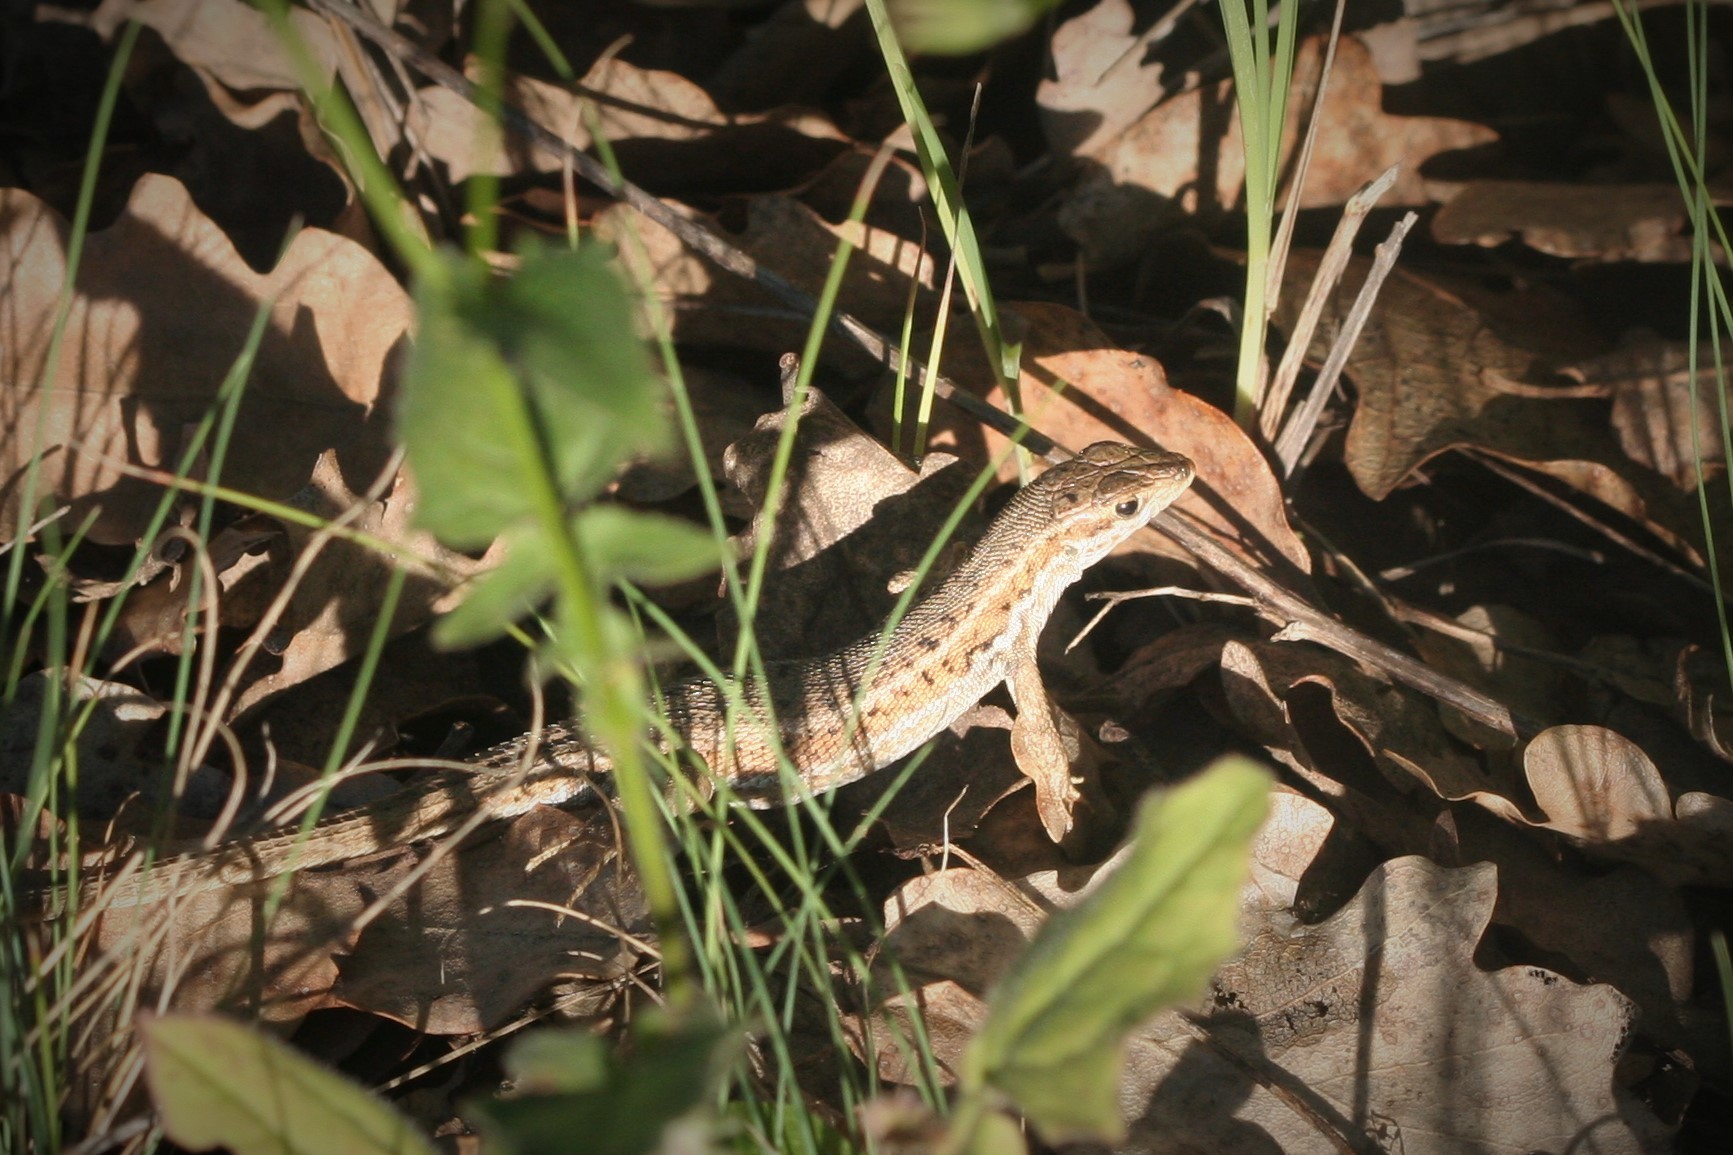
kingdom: Animalia
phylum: Chordata
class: Squamata
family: Lacertidae
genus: Ophisops
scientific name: Ophisops elegans
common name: Snake-eyed lizard
